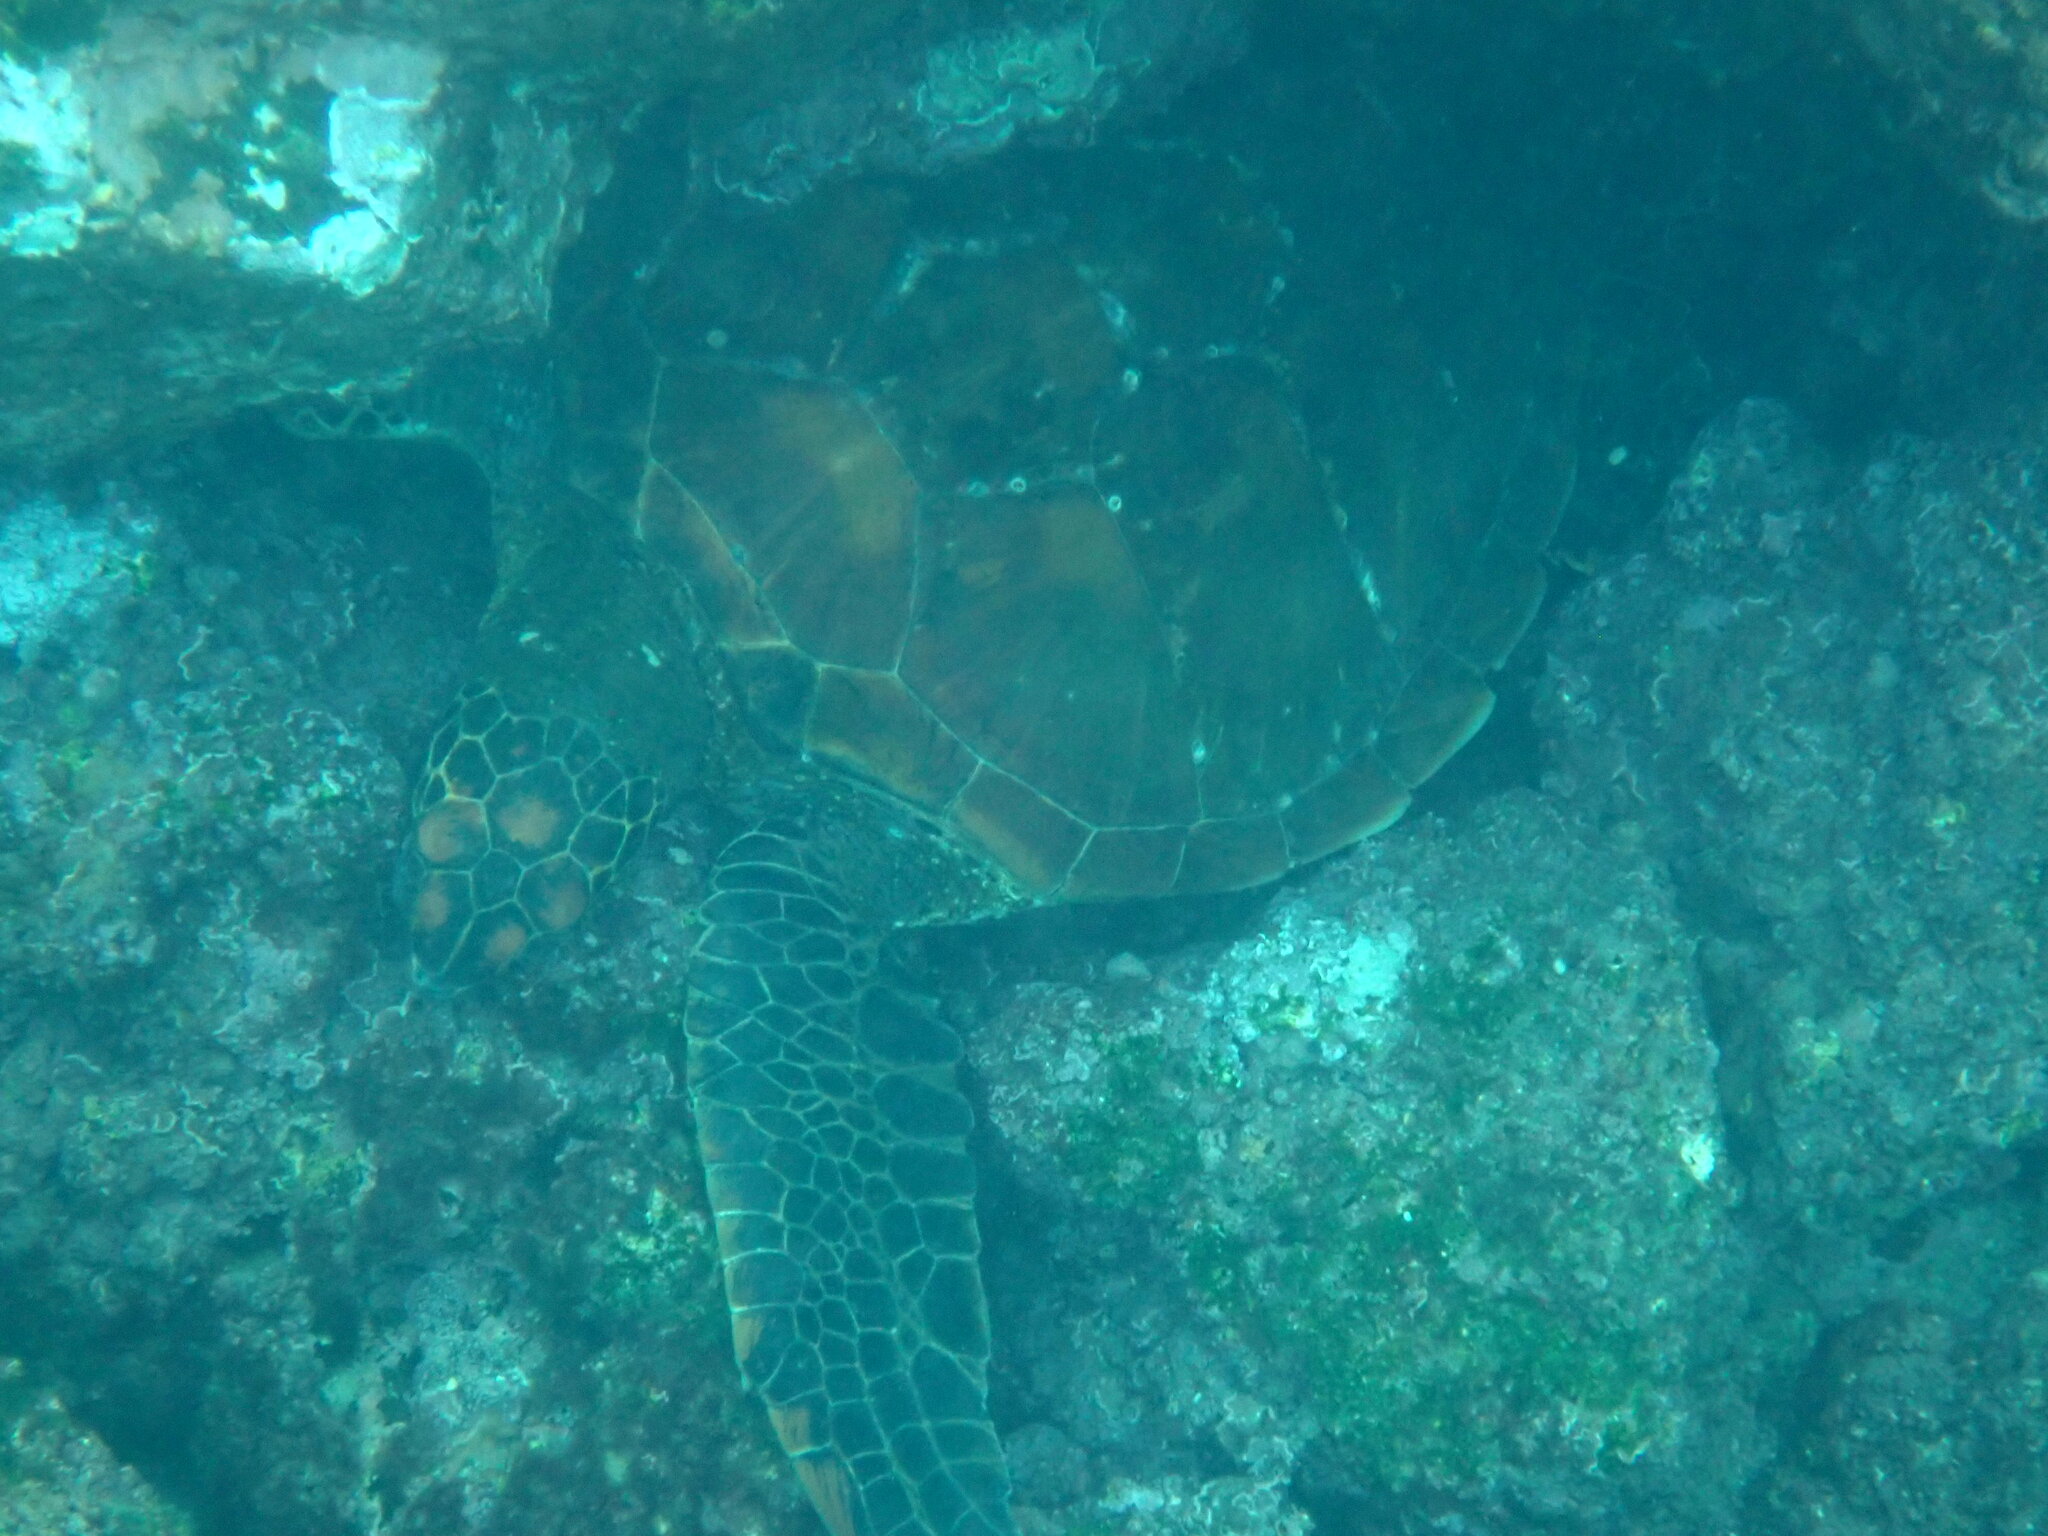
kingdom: Animalia
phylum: Chordata
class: Testudines
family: Cheloniidae
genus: Chelonia
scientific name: Chelonia mydas
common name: Green turtle
